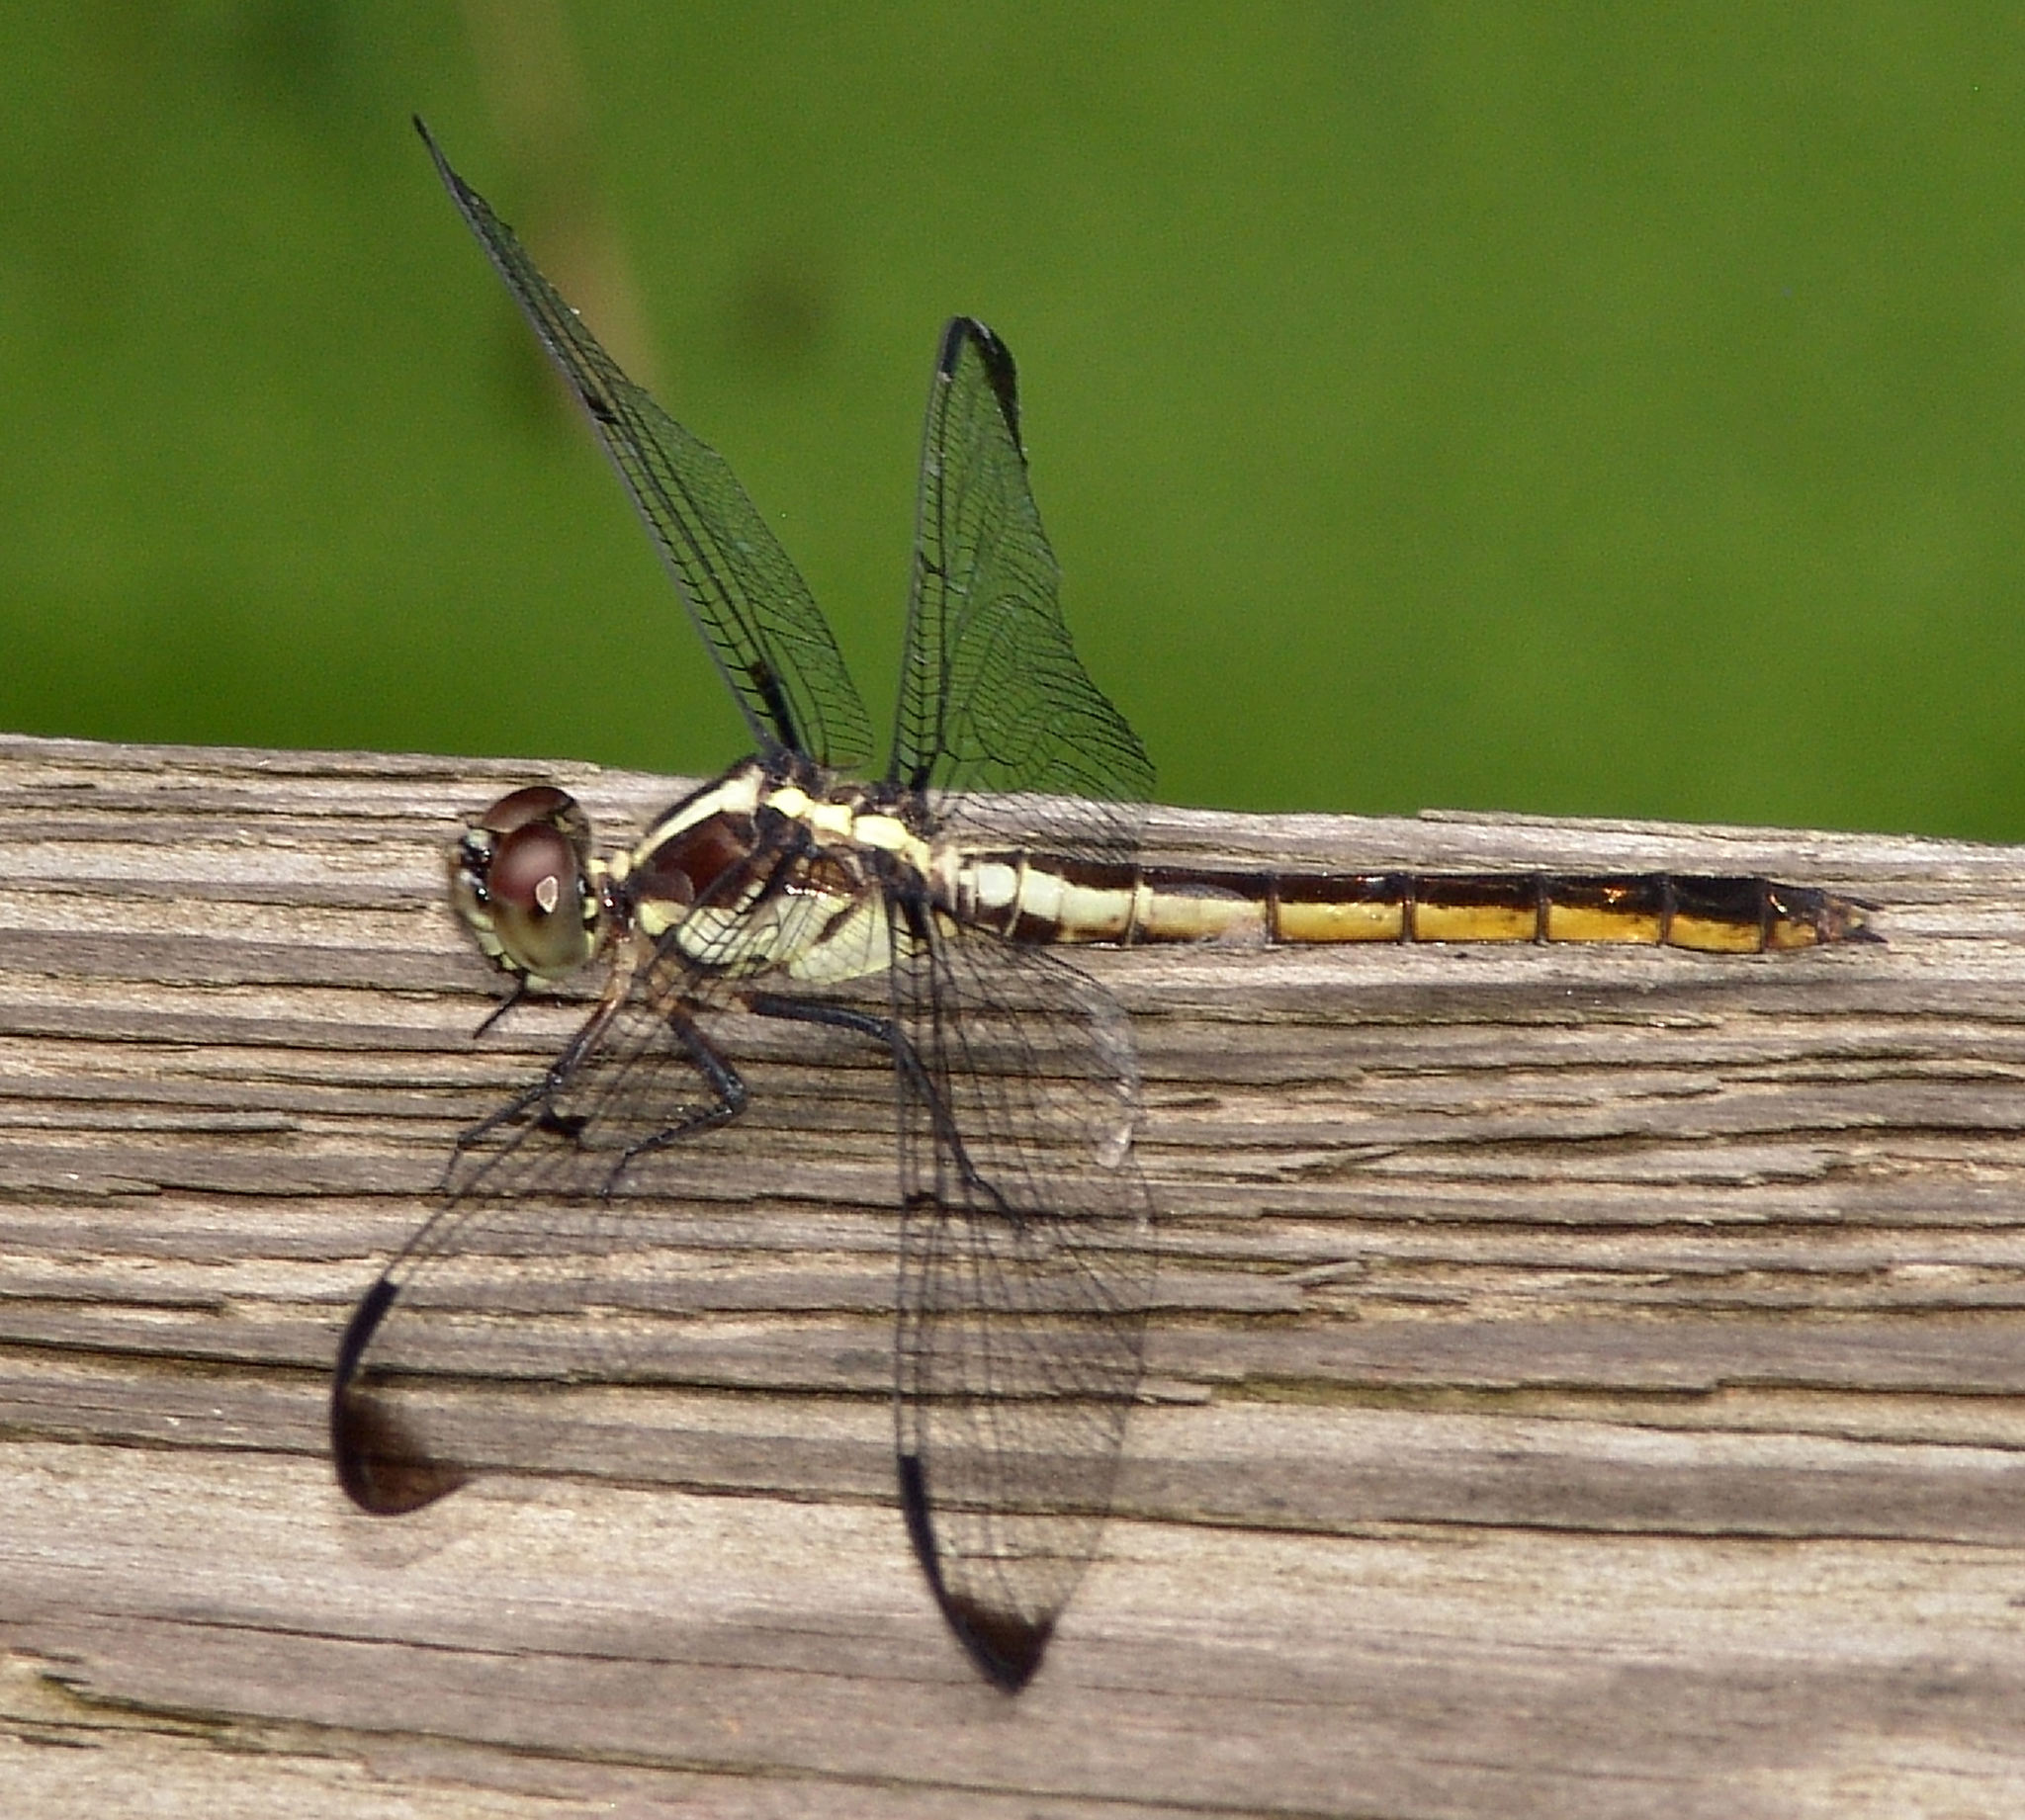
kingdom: Animalia
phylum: Arthropoda
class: Insecta
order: Odonata
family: Libellulidae
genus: Libellula
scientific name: Libellula incesta
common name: Slaty skimmer
